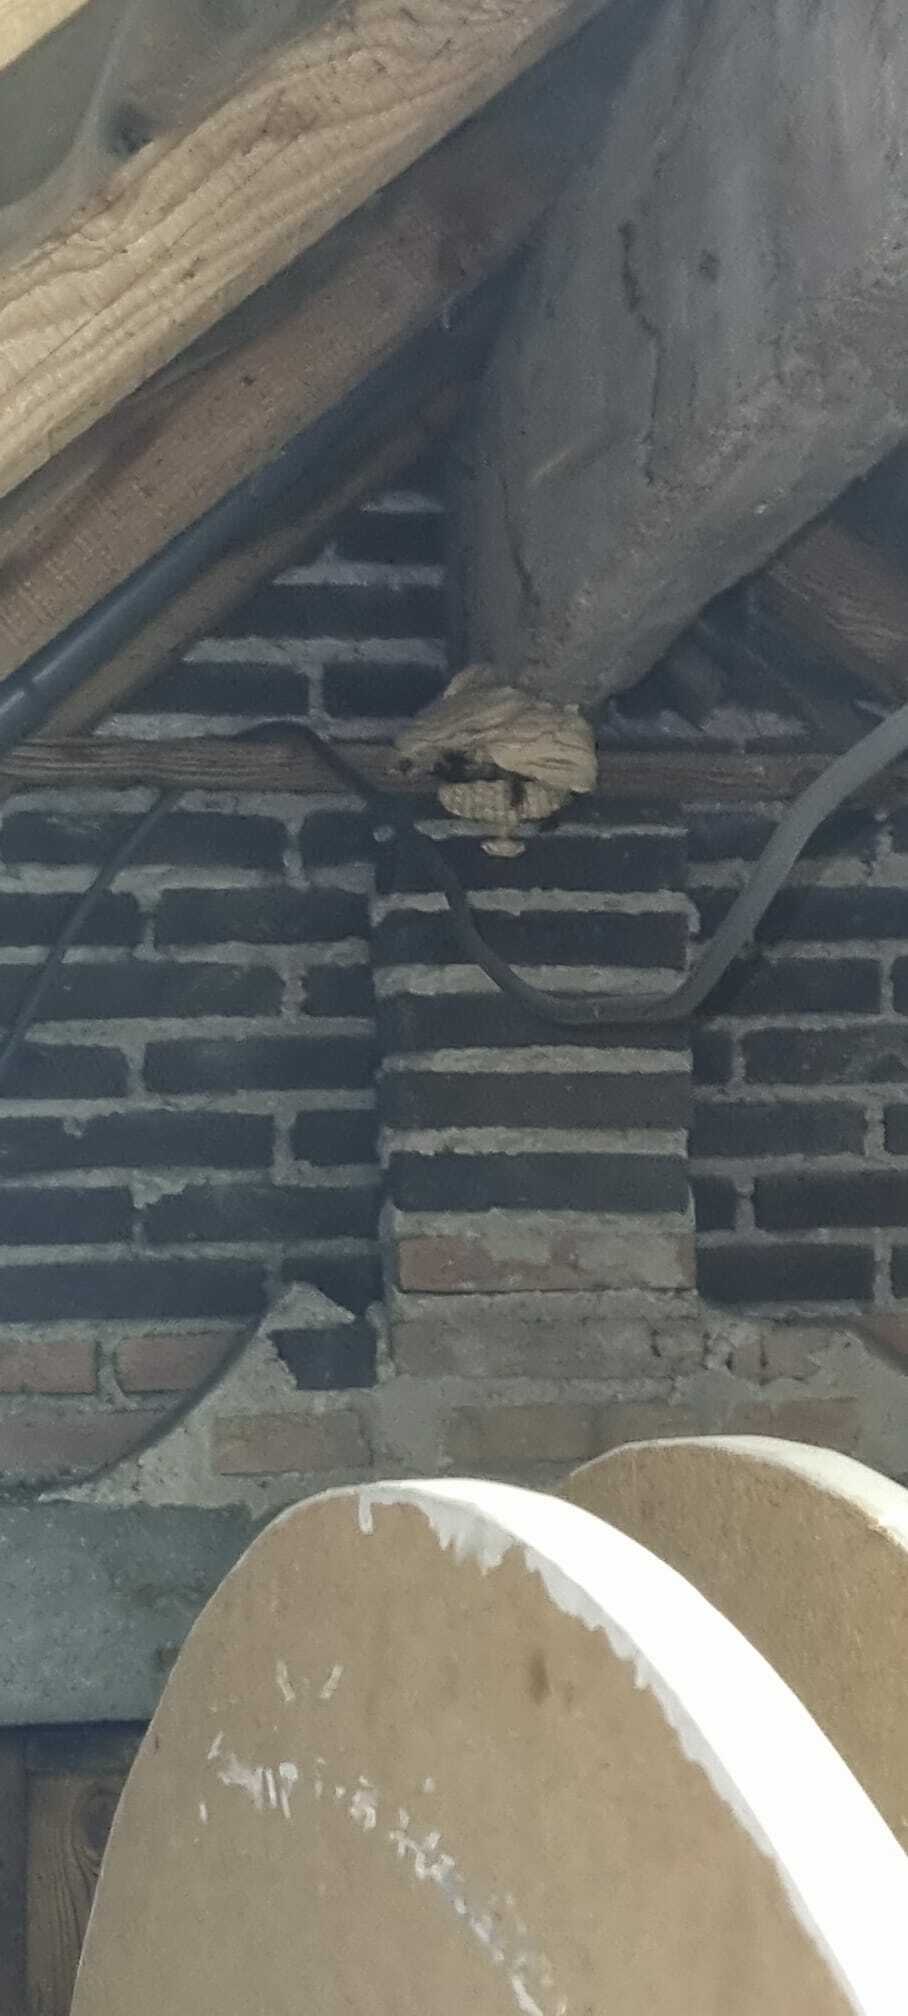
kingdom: Animalia
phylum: Arthropoda
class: Insecta
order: Hymenoptera
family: Vespidae
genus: Vespa
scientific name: Vespa velutina
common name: Asian hornet
